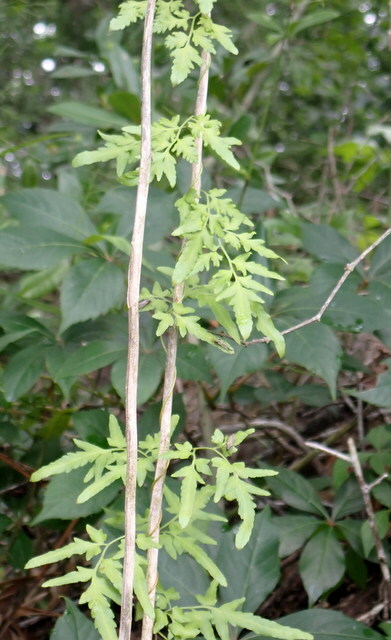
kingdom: Plantae
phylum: Tracheophyta
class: Polypodiopsida
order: Schizaeales
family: Lygodiaceae
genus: Lygodium
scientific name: Lygodium japonicum
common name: Japanese climbing fern
